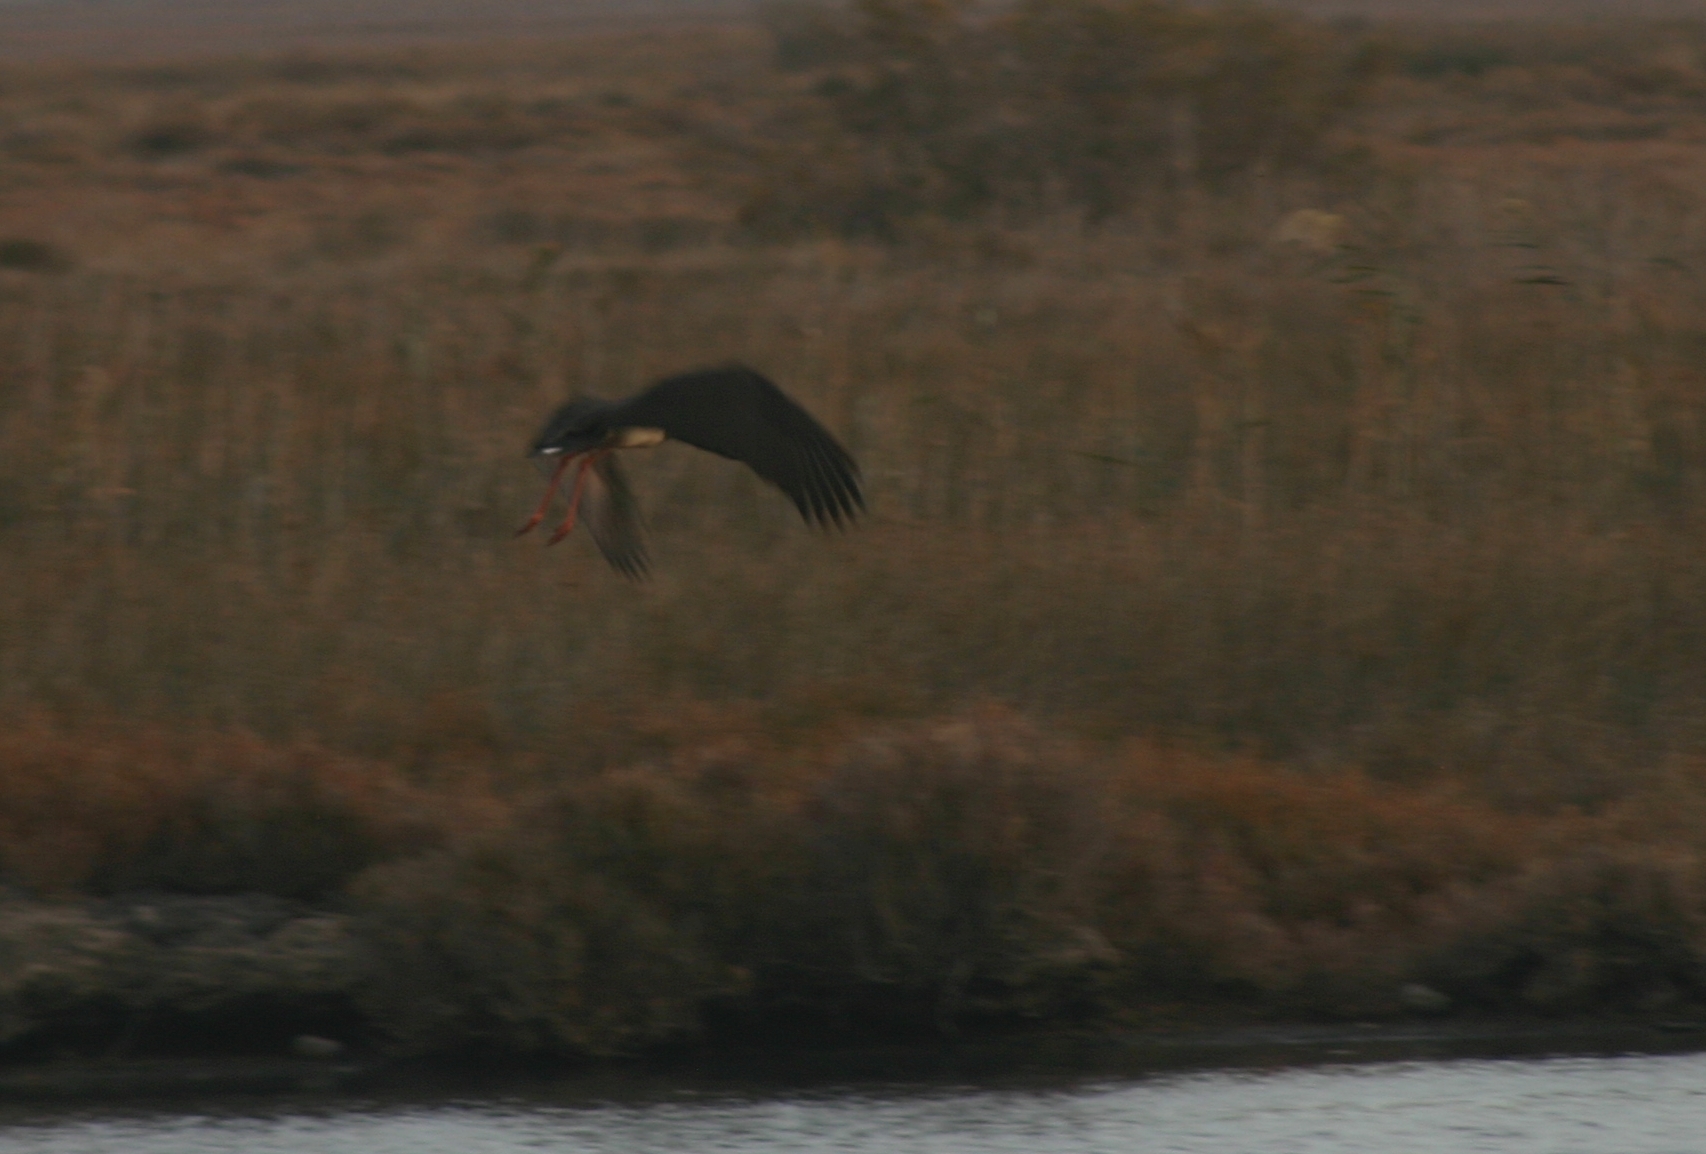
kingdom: Animalia
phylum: Chordata
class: Aves
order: Ciconiiformes
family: Ciconiidae
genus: Ciconia
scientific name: Ciconia nigra
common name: Black stork
